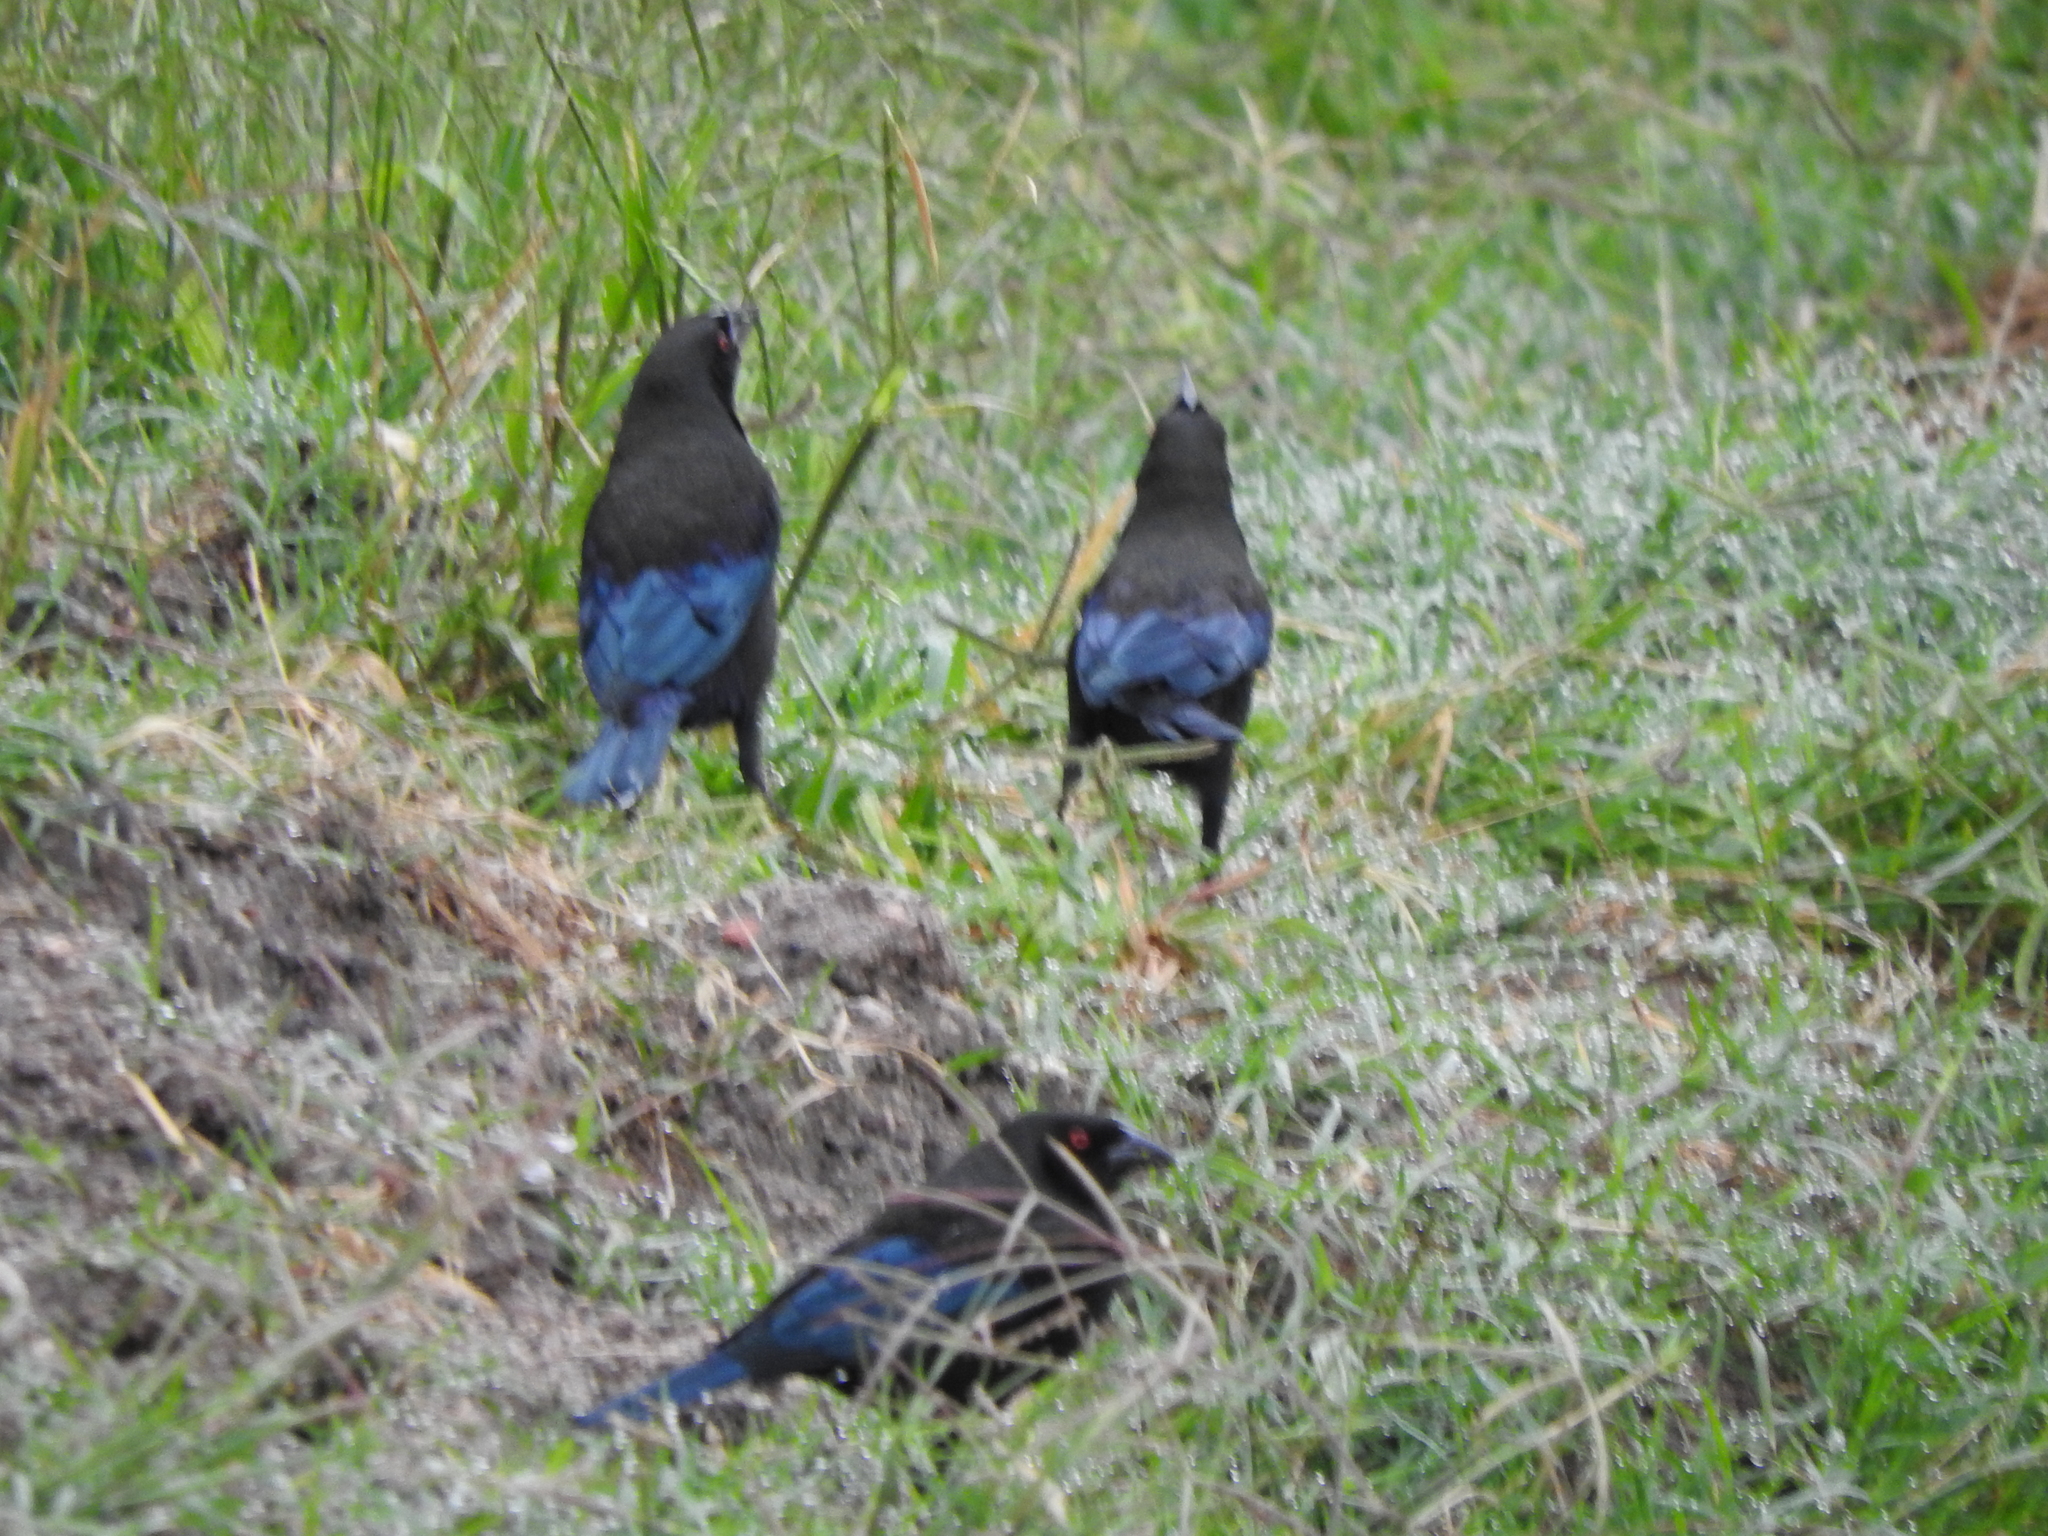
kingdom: Animalia
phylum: Chordata
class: Aves
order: Passeriformes
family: Icteridae
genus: Molothrus
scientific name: Molothrus aeneus
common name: Bronzed cowbird
